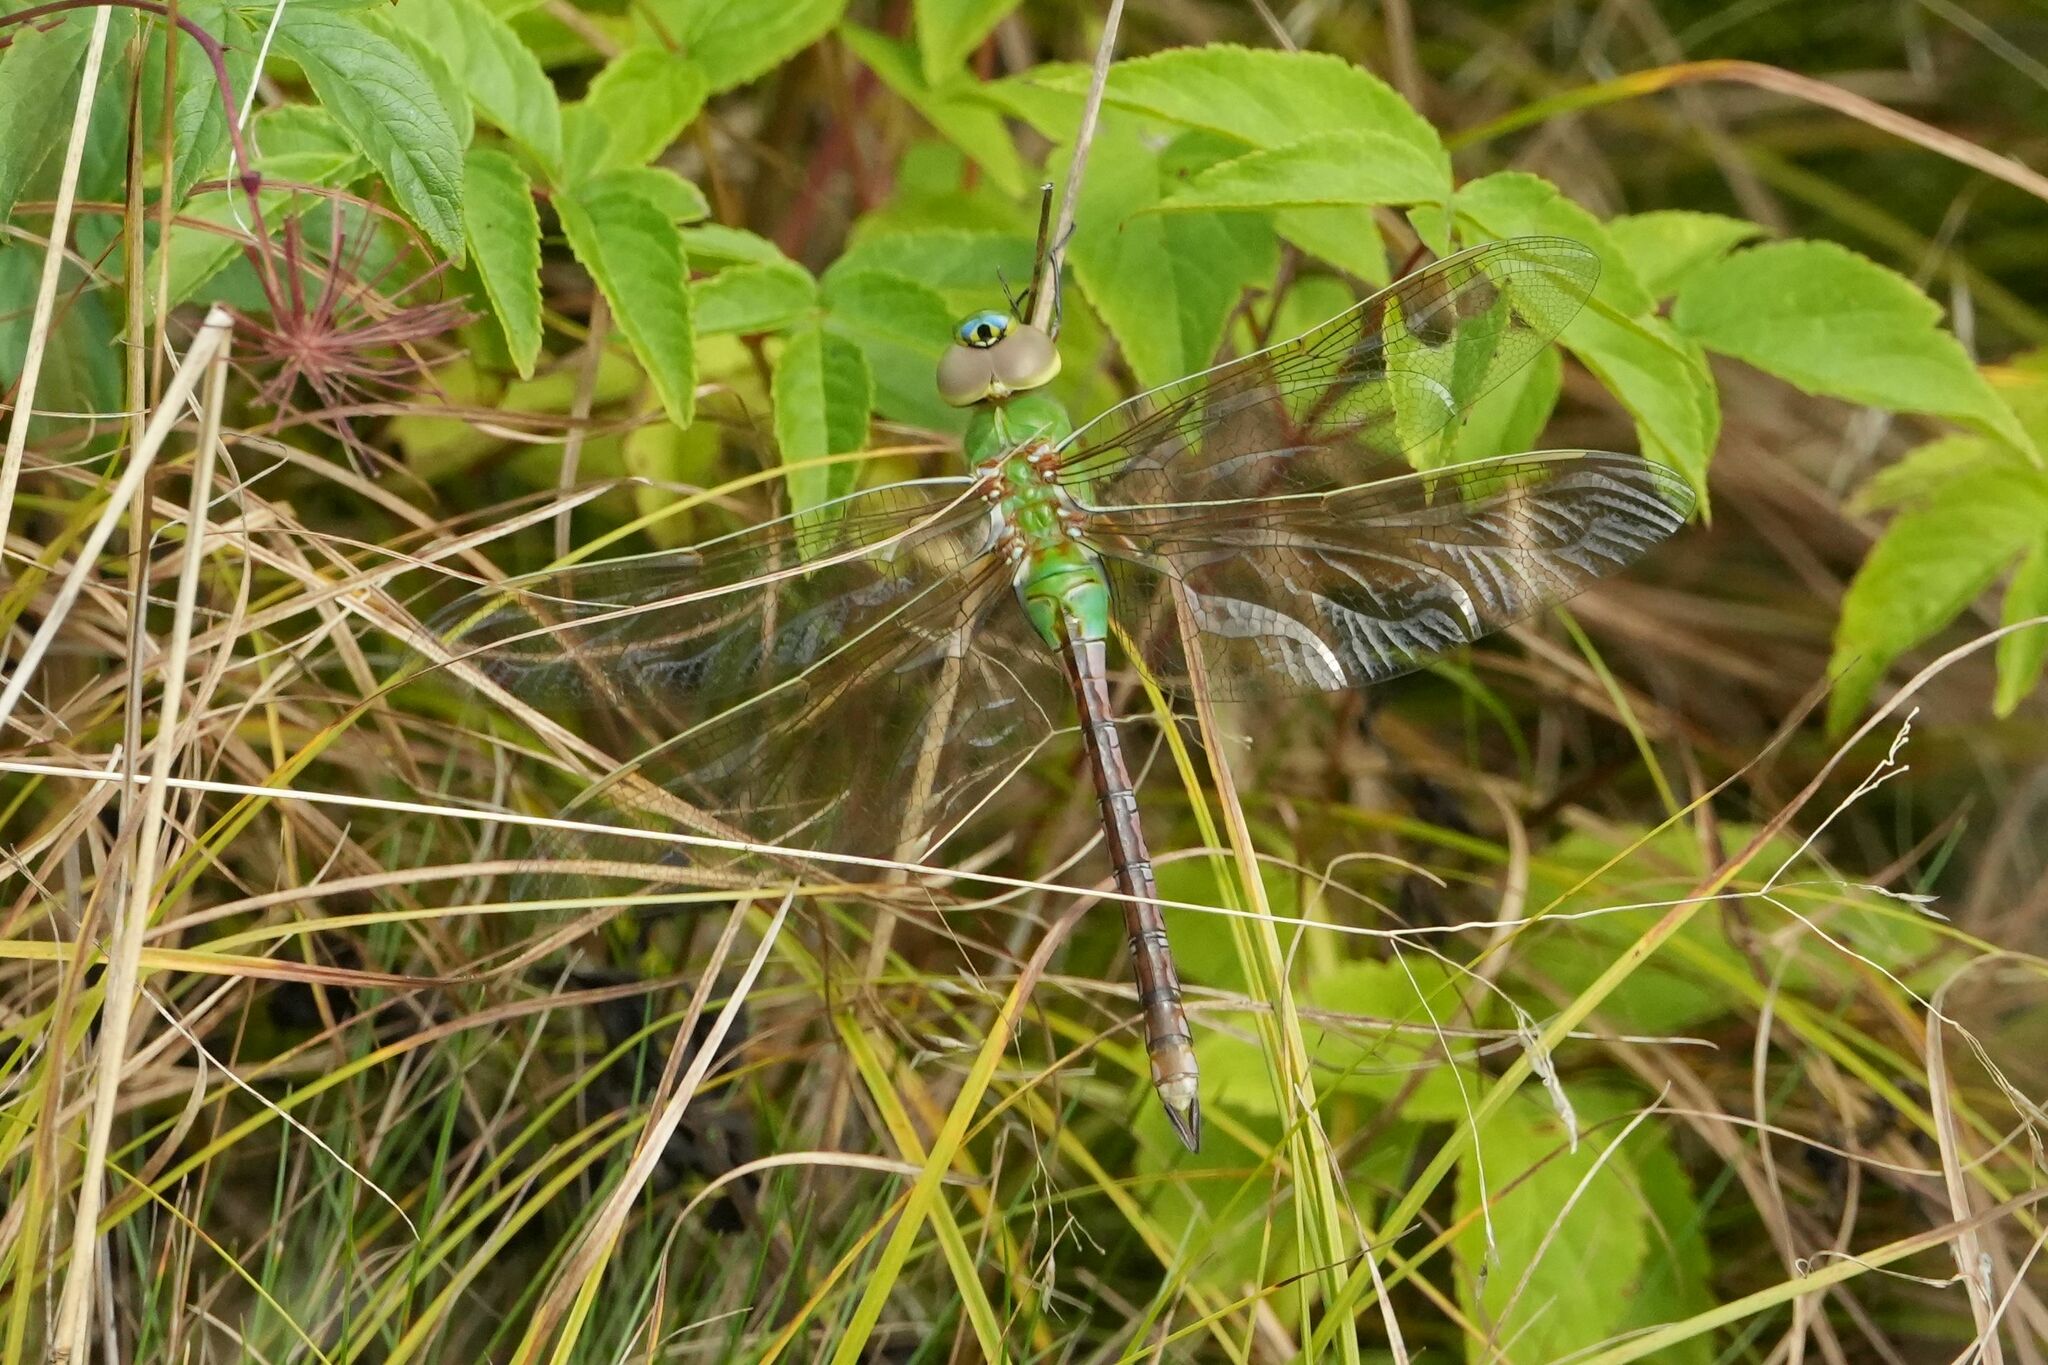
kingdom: Animalia
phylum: Arthropoda
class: Insecta
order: Odonata
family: Aeshnidae
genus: Anax
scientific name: Anax junius
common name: Common green darner
